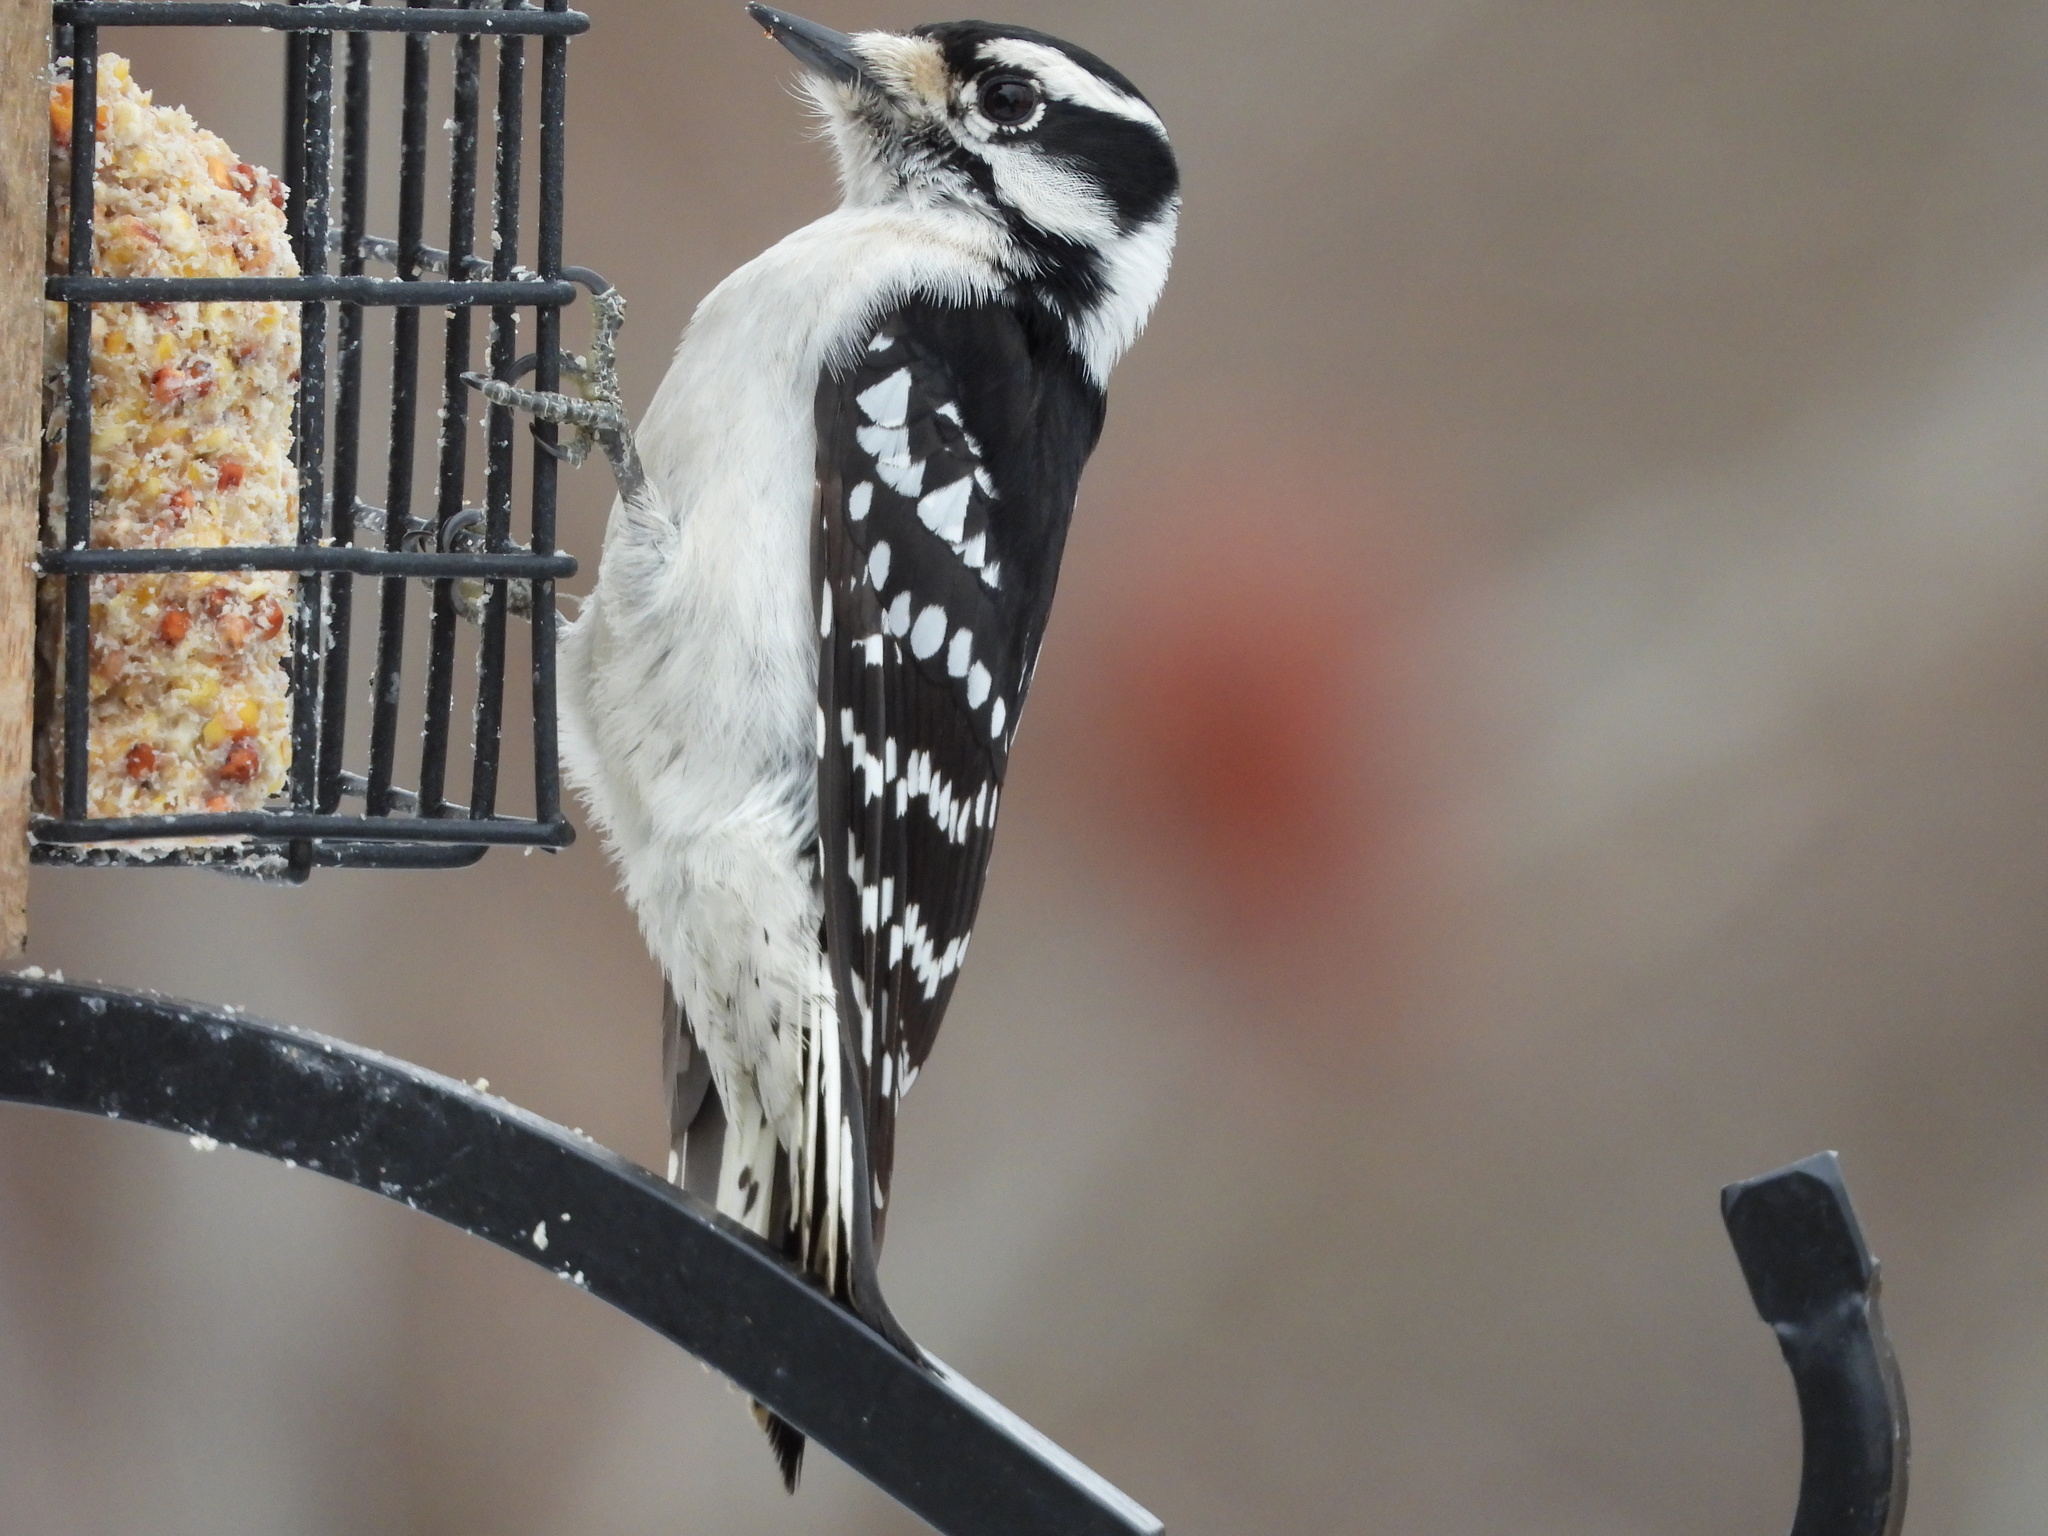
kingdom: Animalia
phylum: Chordata
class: Aves
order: Piciformes
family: Picidae
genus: Dryobates
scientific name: Dryobates pubescens
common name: Downy woodpecker
